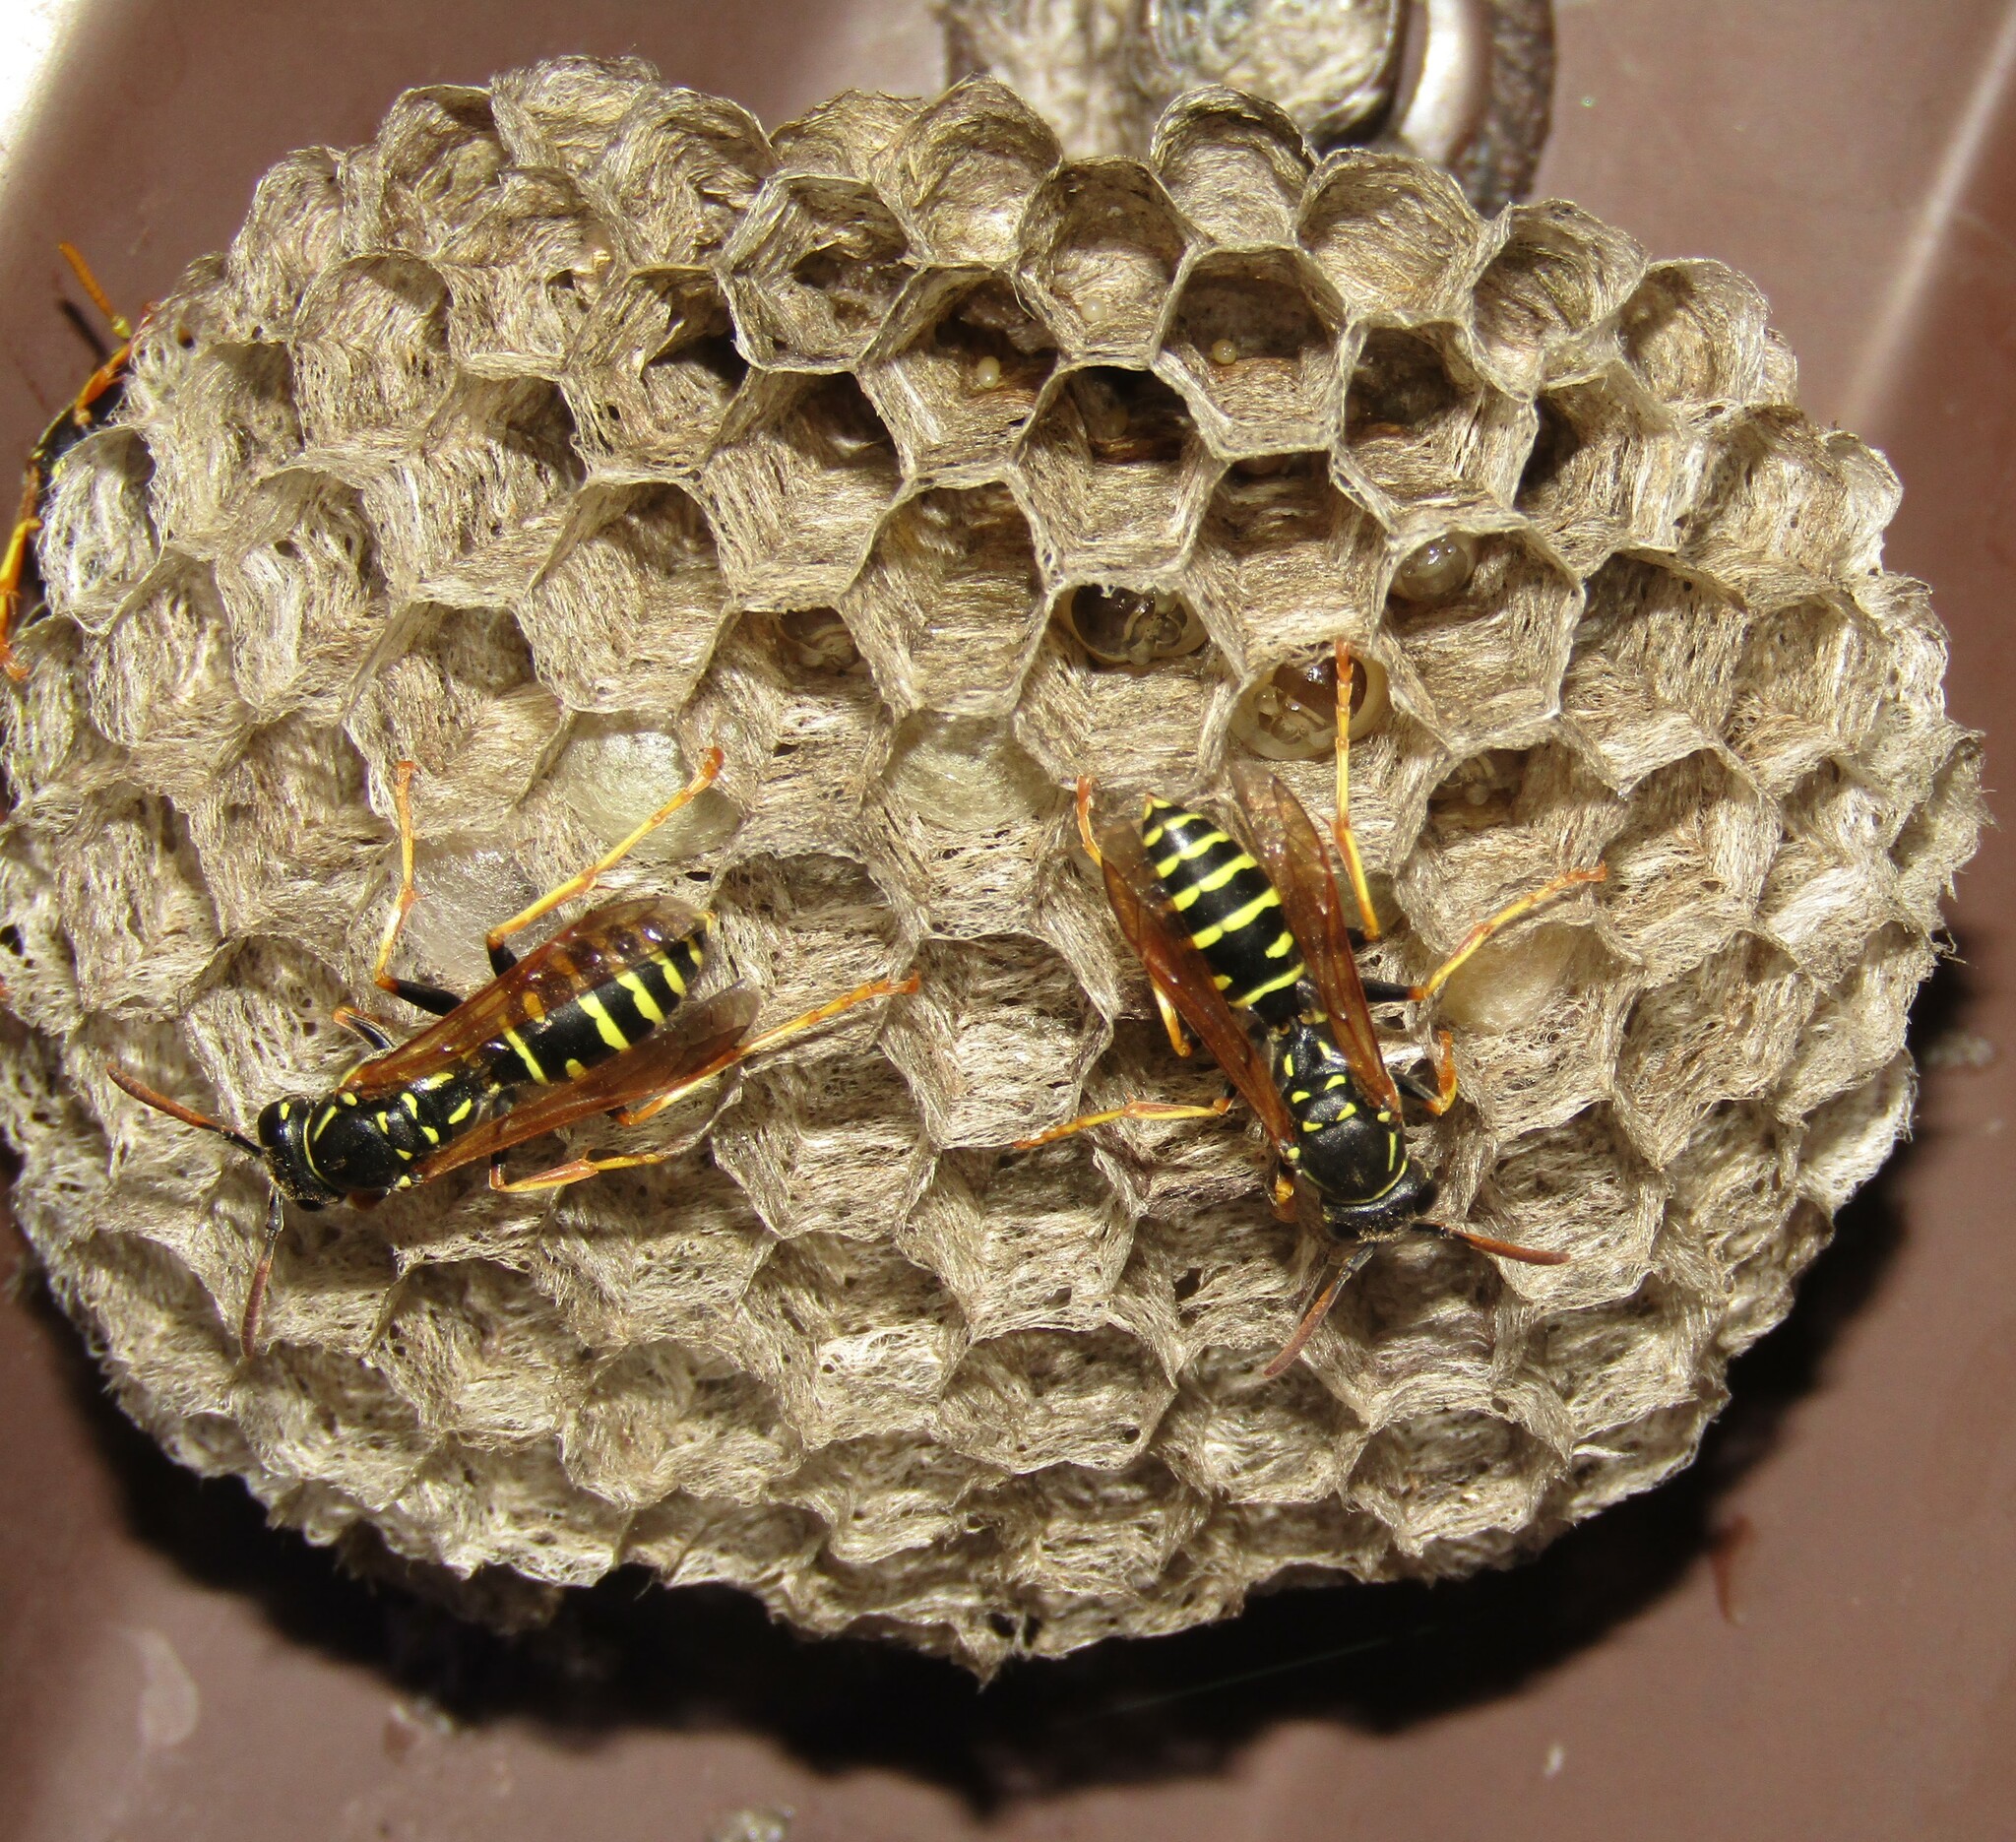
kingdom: Animalia
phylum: Arthropoda
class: Insecta
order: Hymenoptera
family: Eumenidae
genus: Polistes
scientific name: Polistes nimpha
